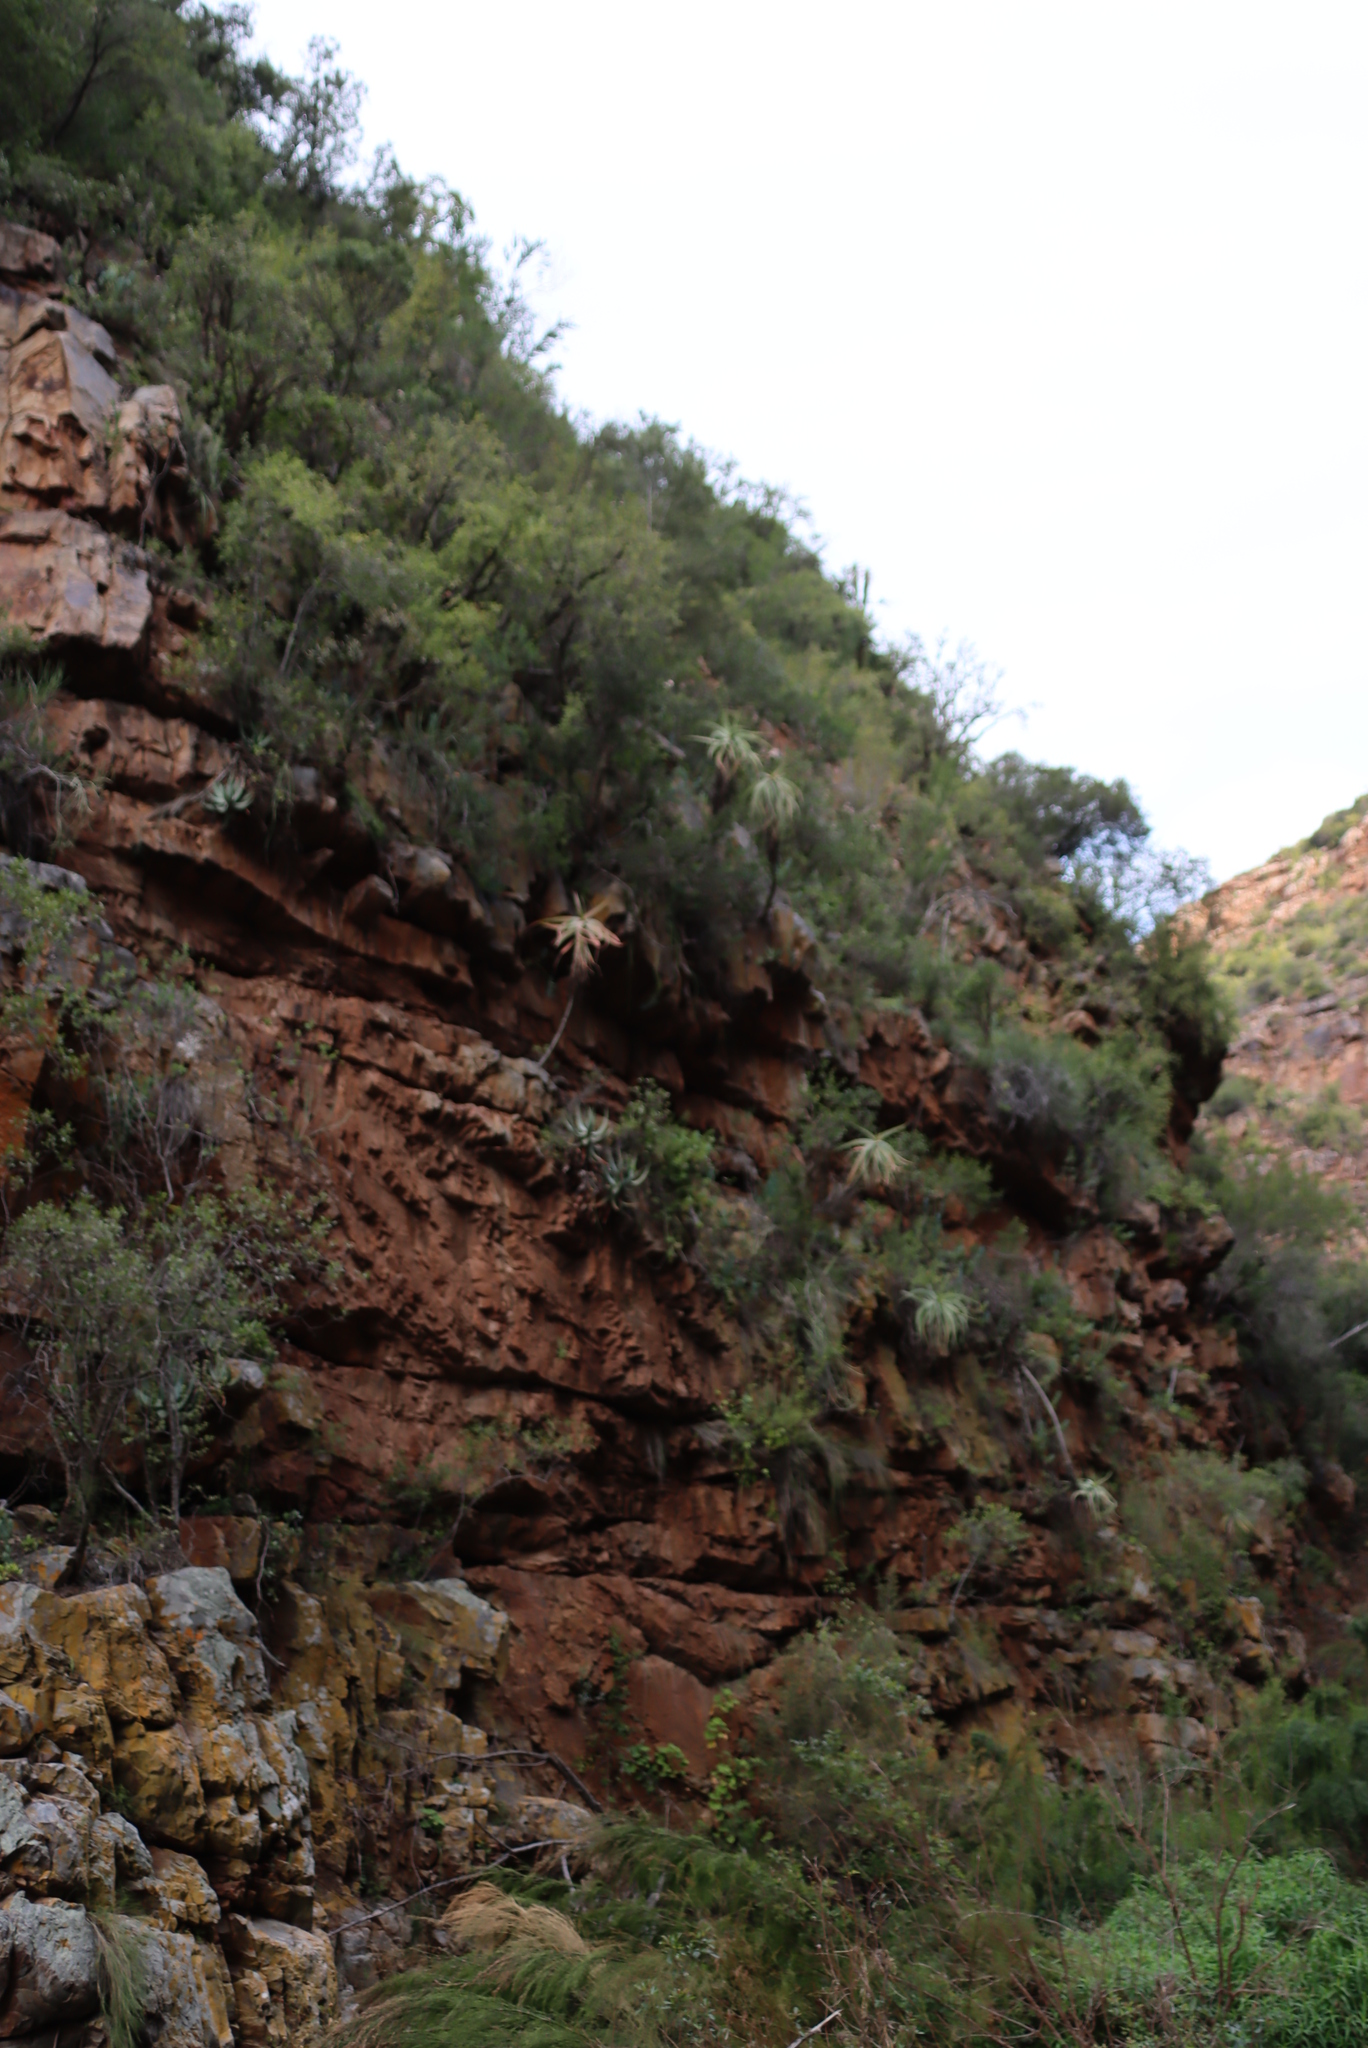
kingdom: Plantae
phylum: Tracheophyta
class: Liliopsida
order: Asparagales
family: Asphodelaceae
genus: Aloe
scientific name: Aloe speciosa
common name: Beautiful aloe
